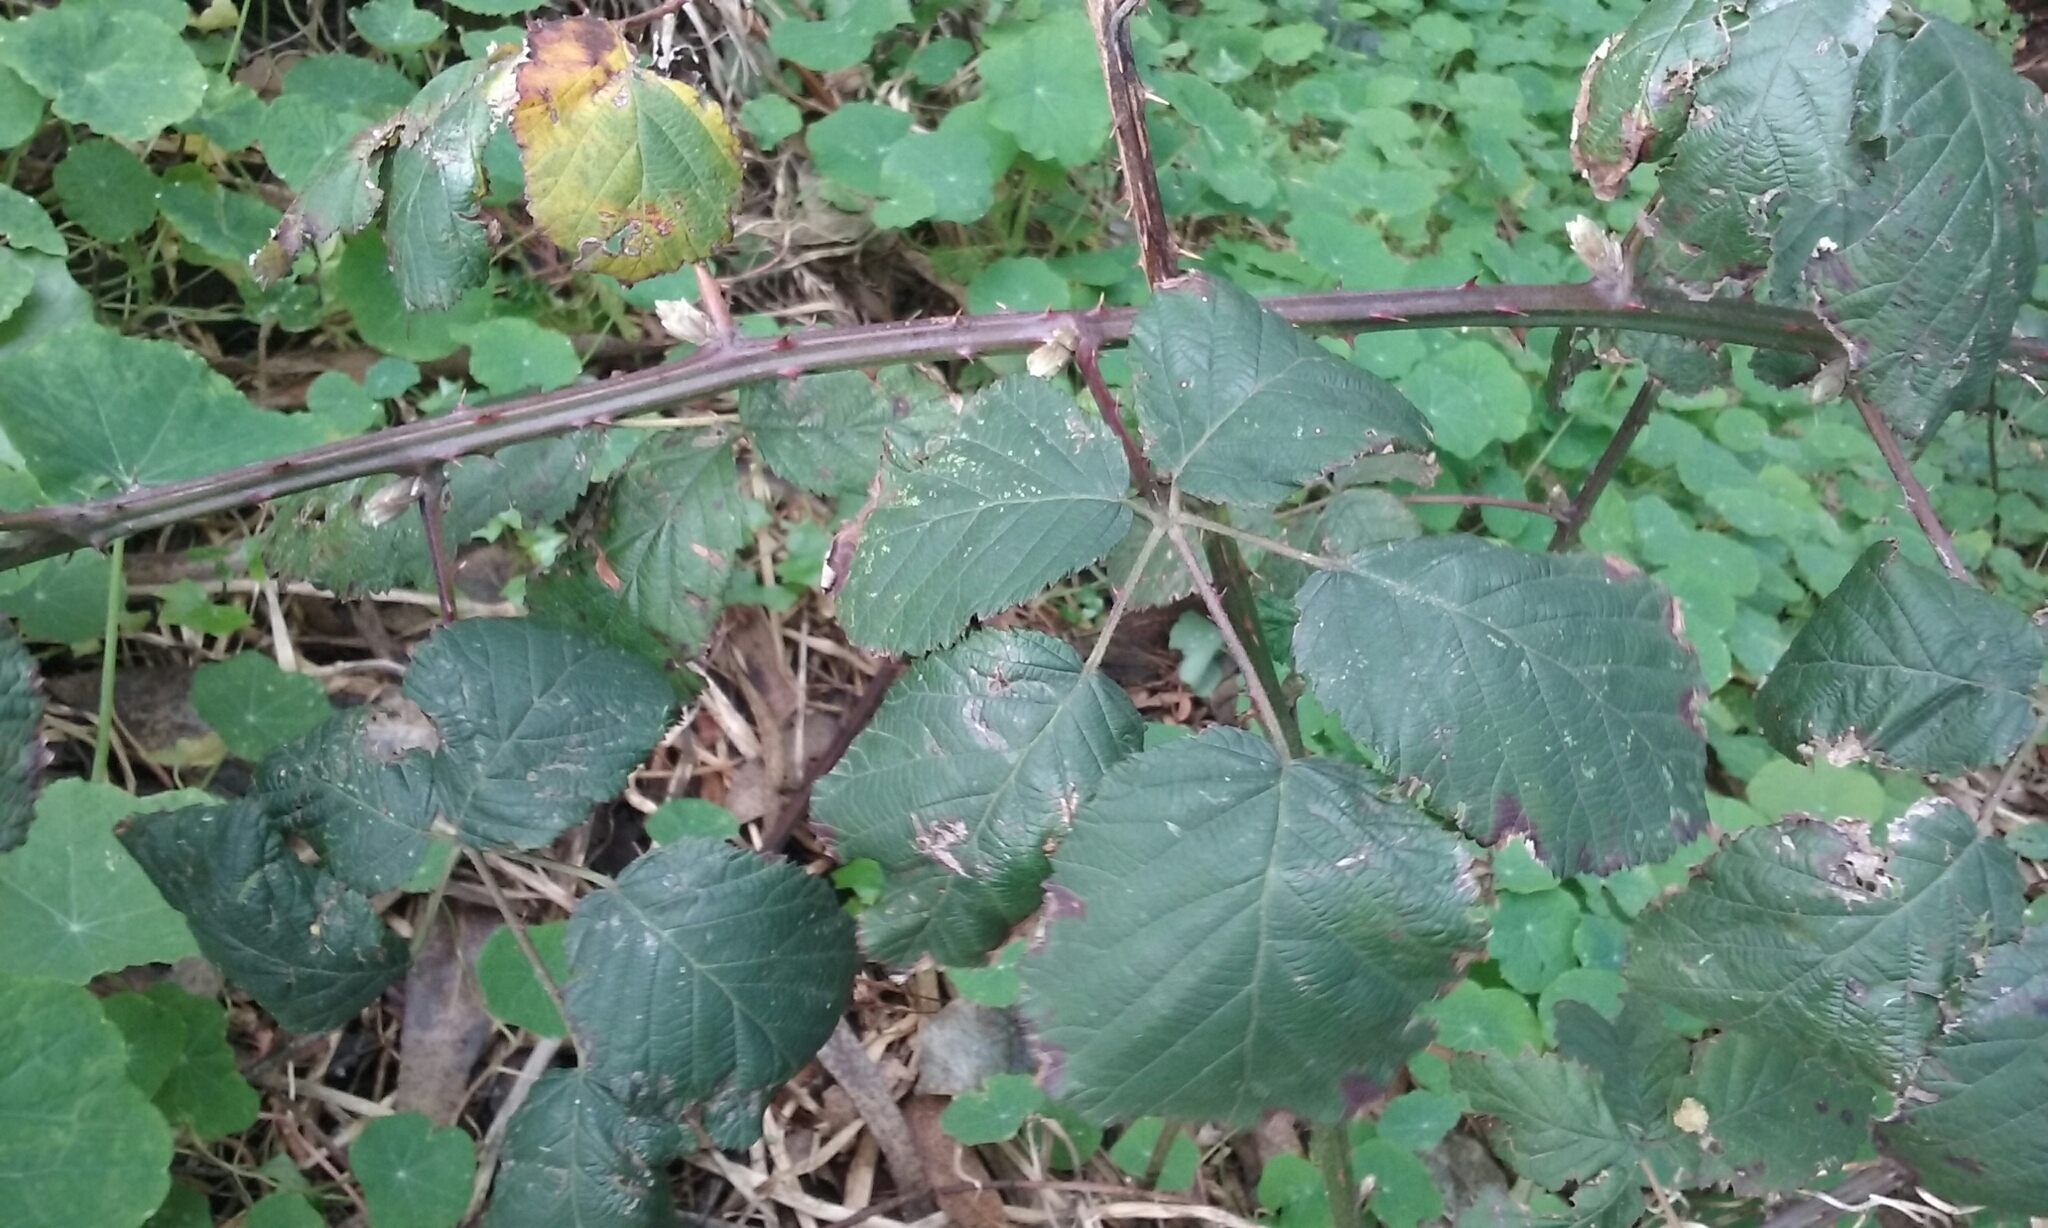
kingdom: Plantae
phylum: Tracheophyta
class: Magnoliopsida
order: Rosales
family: Rosaceae
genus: Rubus
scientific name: Rubus armeniacus
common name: Himalayan blackberry
